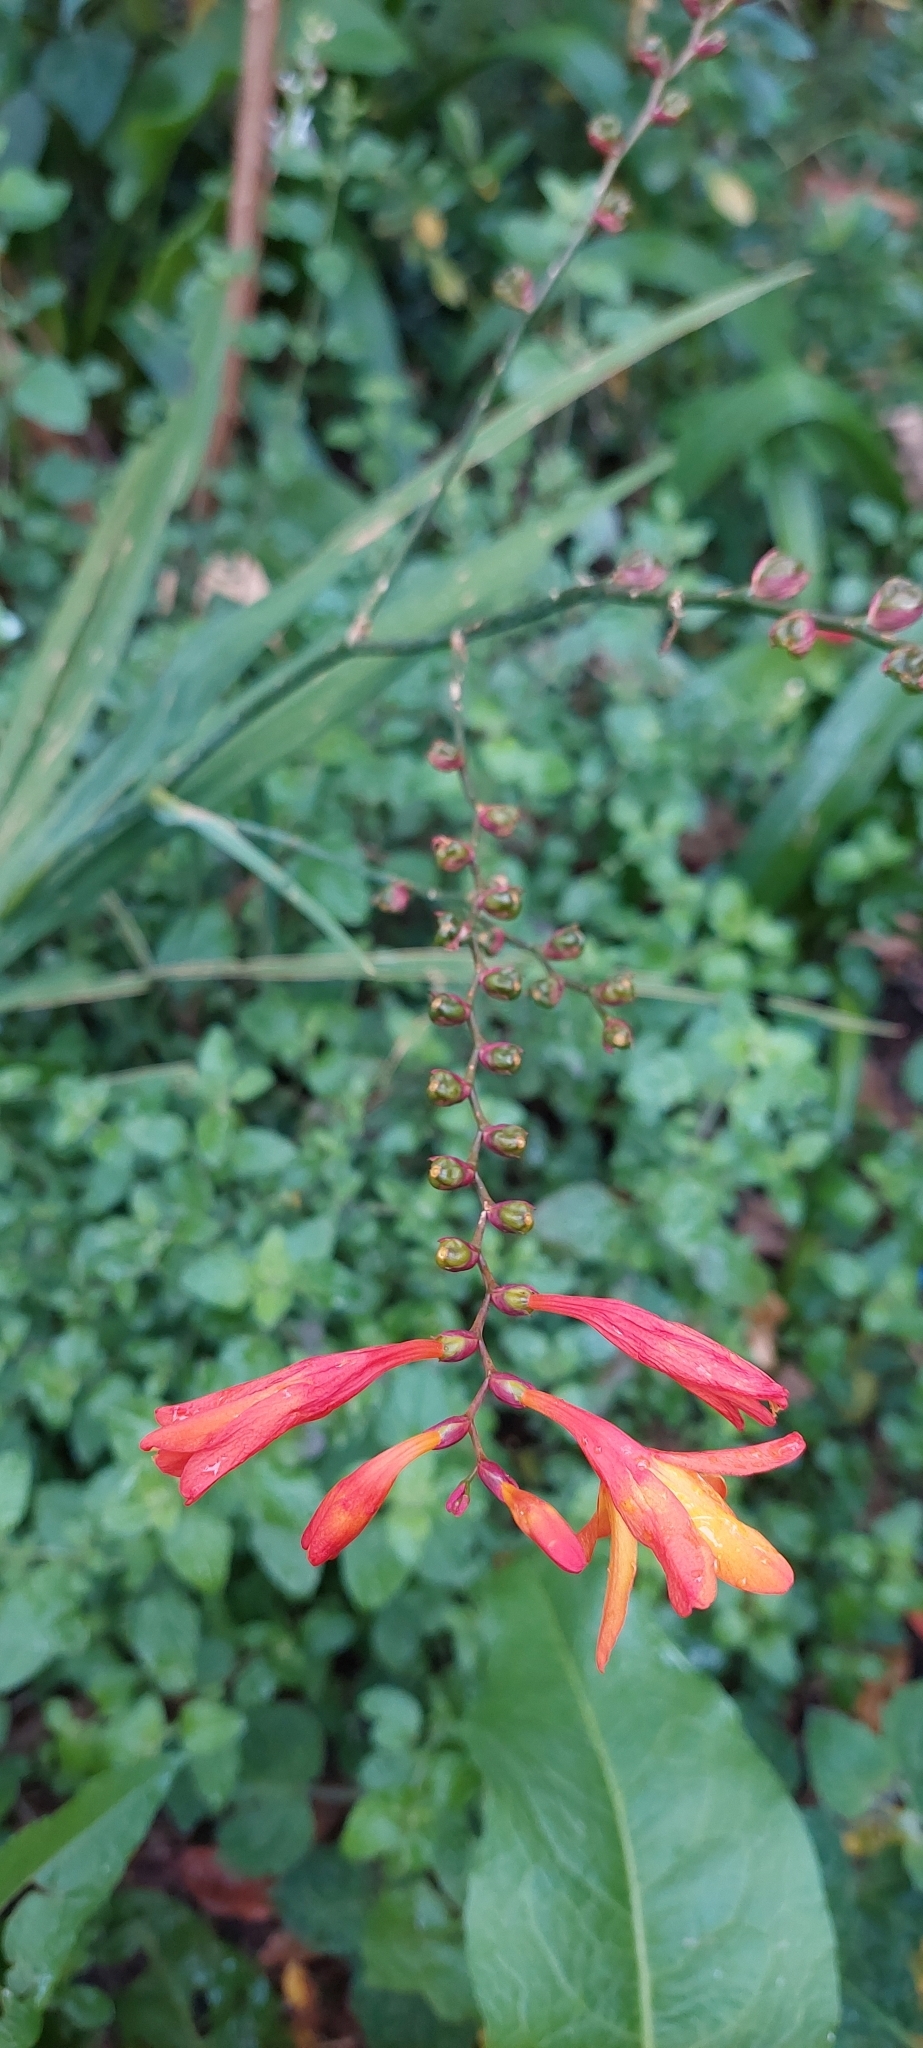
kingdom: Plantae
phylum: Tracheophyta
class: Liliopsida
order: Asparagales
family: Iridaceae
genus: Crocosmia
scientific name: Crocosmia crocosmiiflora
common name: Montbretia
